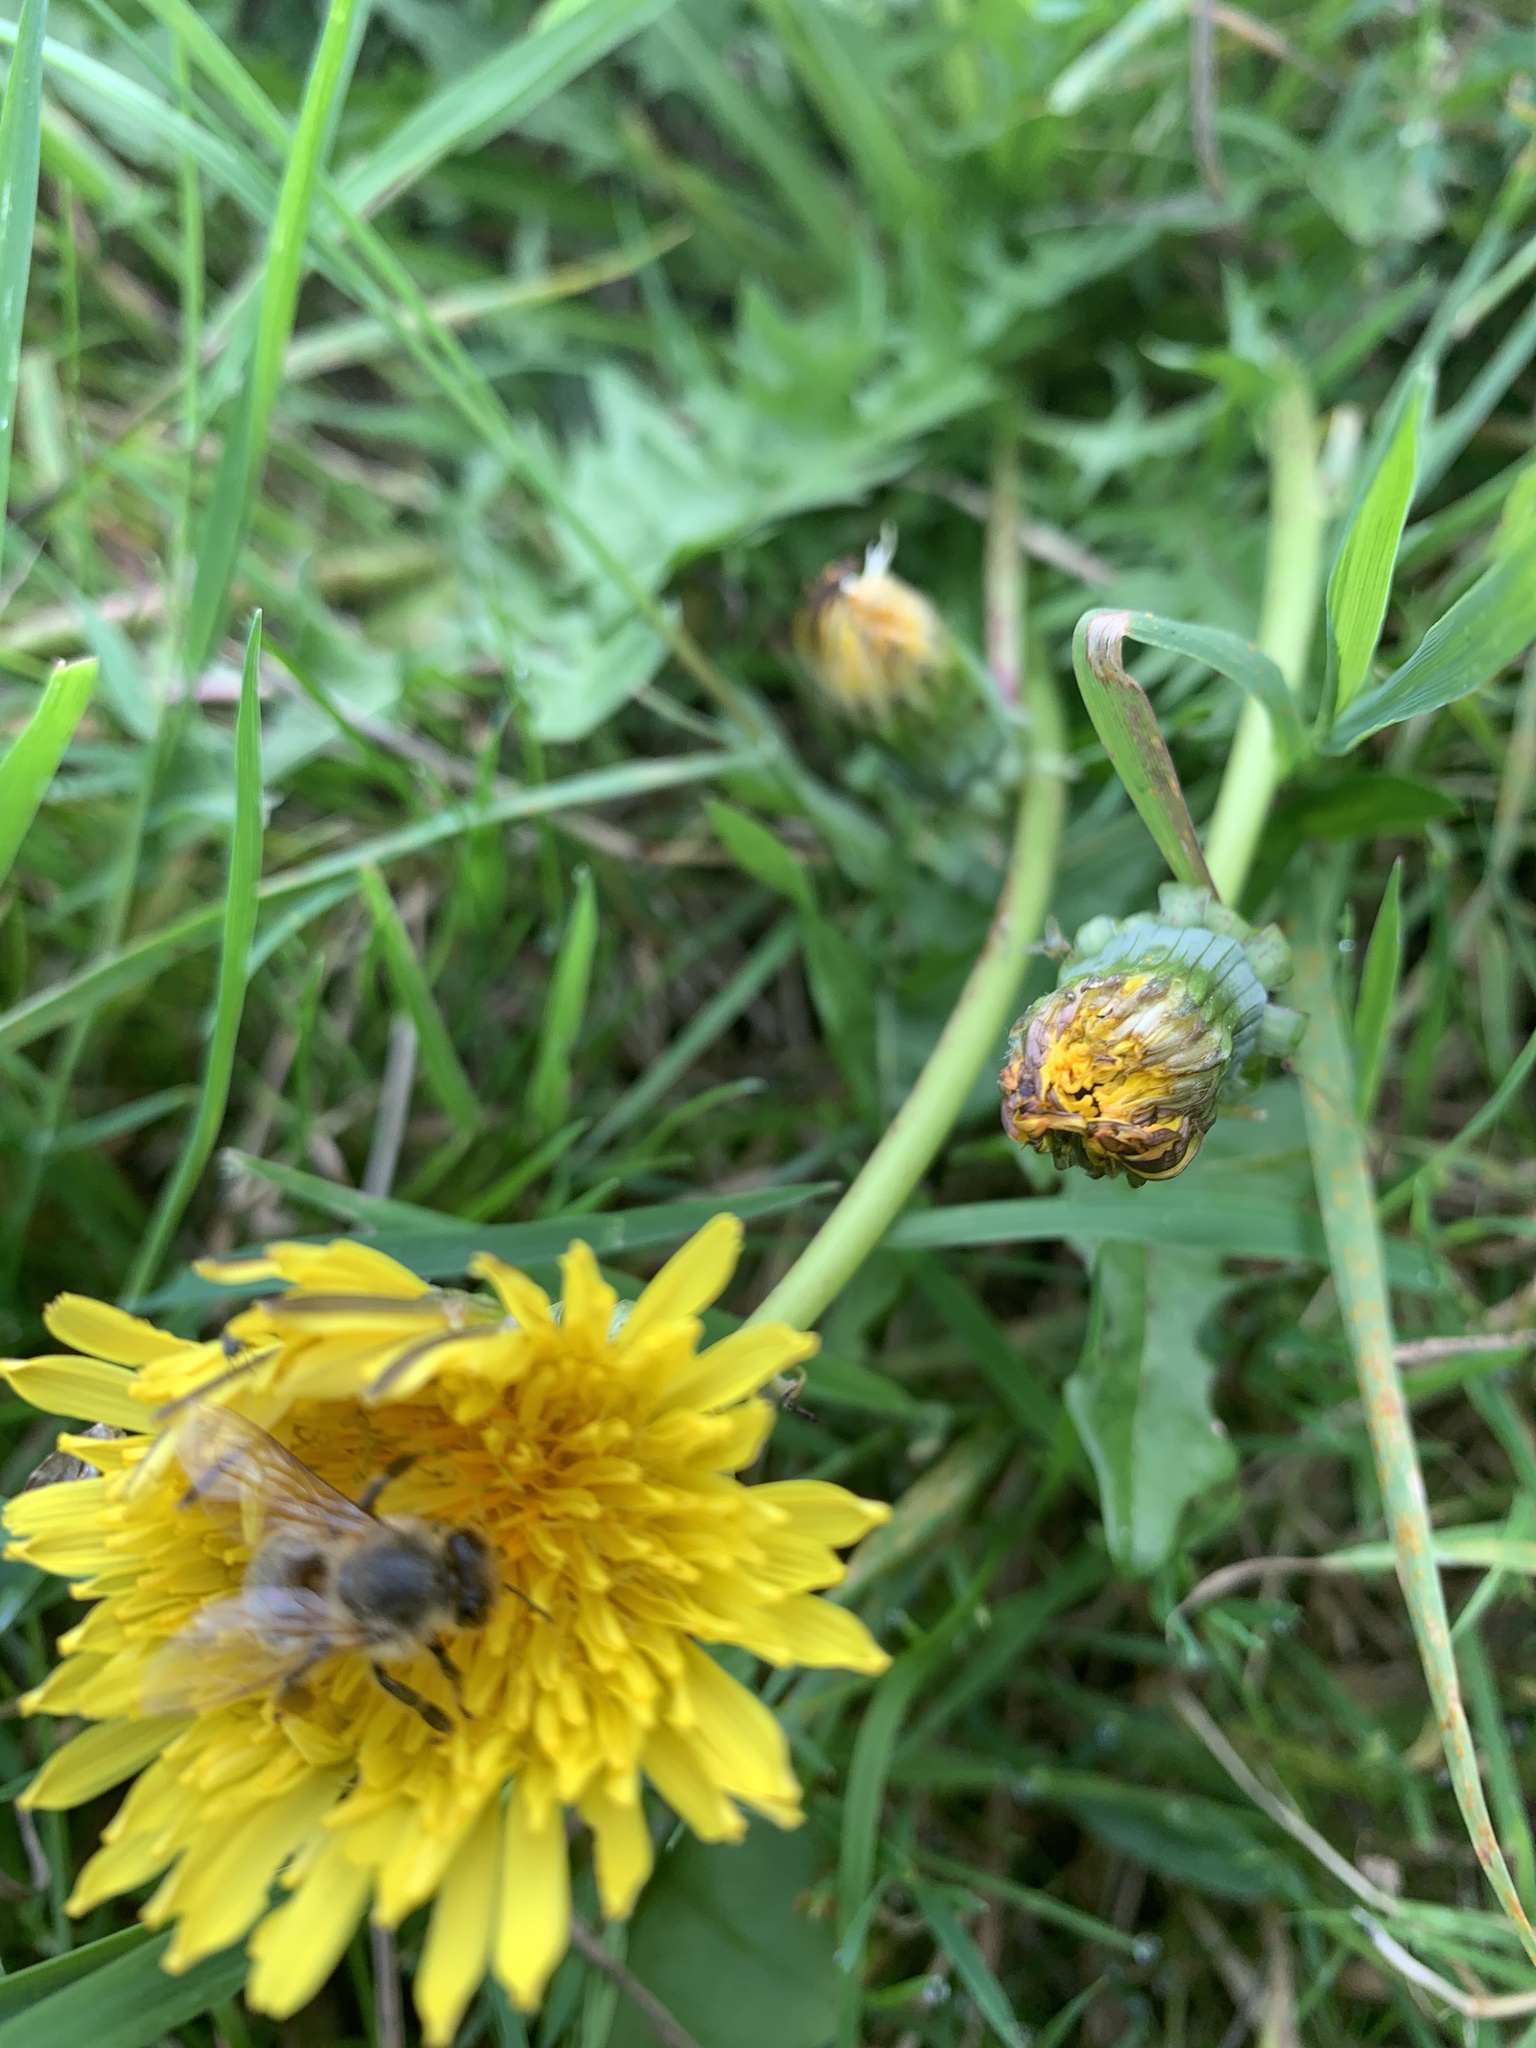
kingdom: Animalia
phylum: Arthropoda
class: Insecta
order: Hymenoptera
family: Apidae
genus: Apis
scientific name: Apis mellifera
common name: Honey bee
